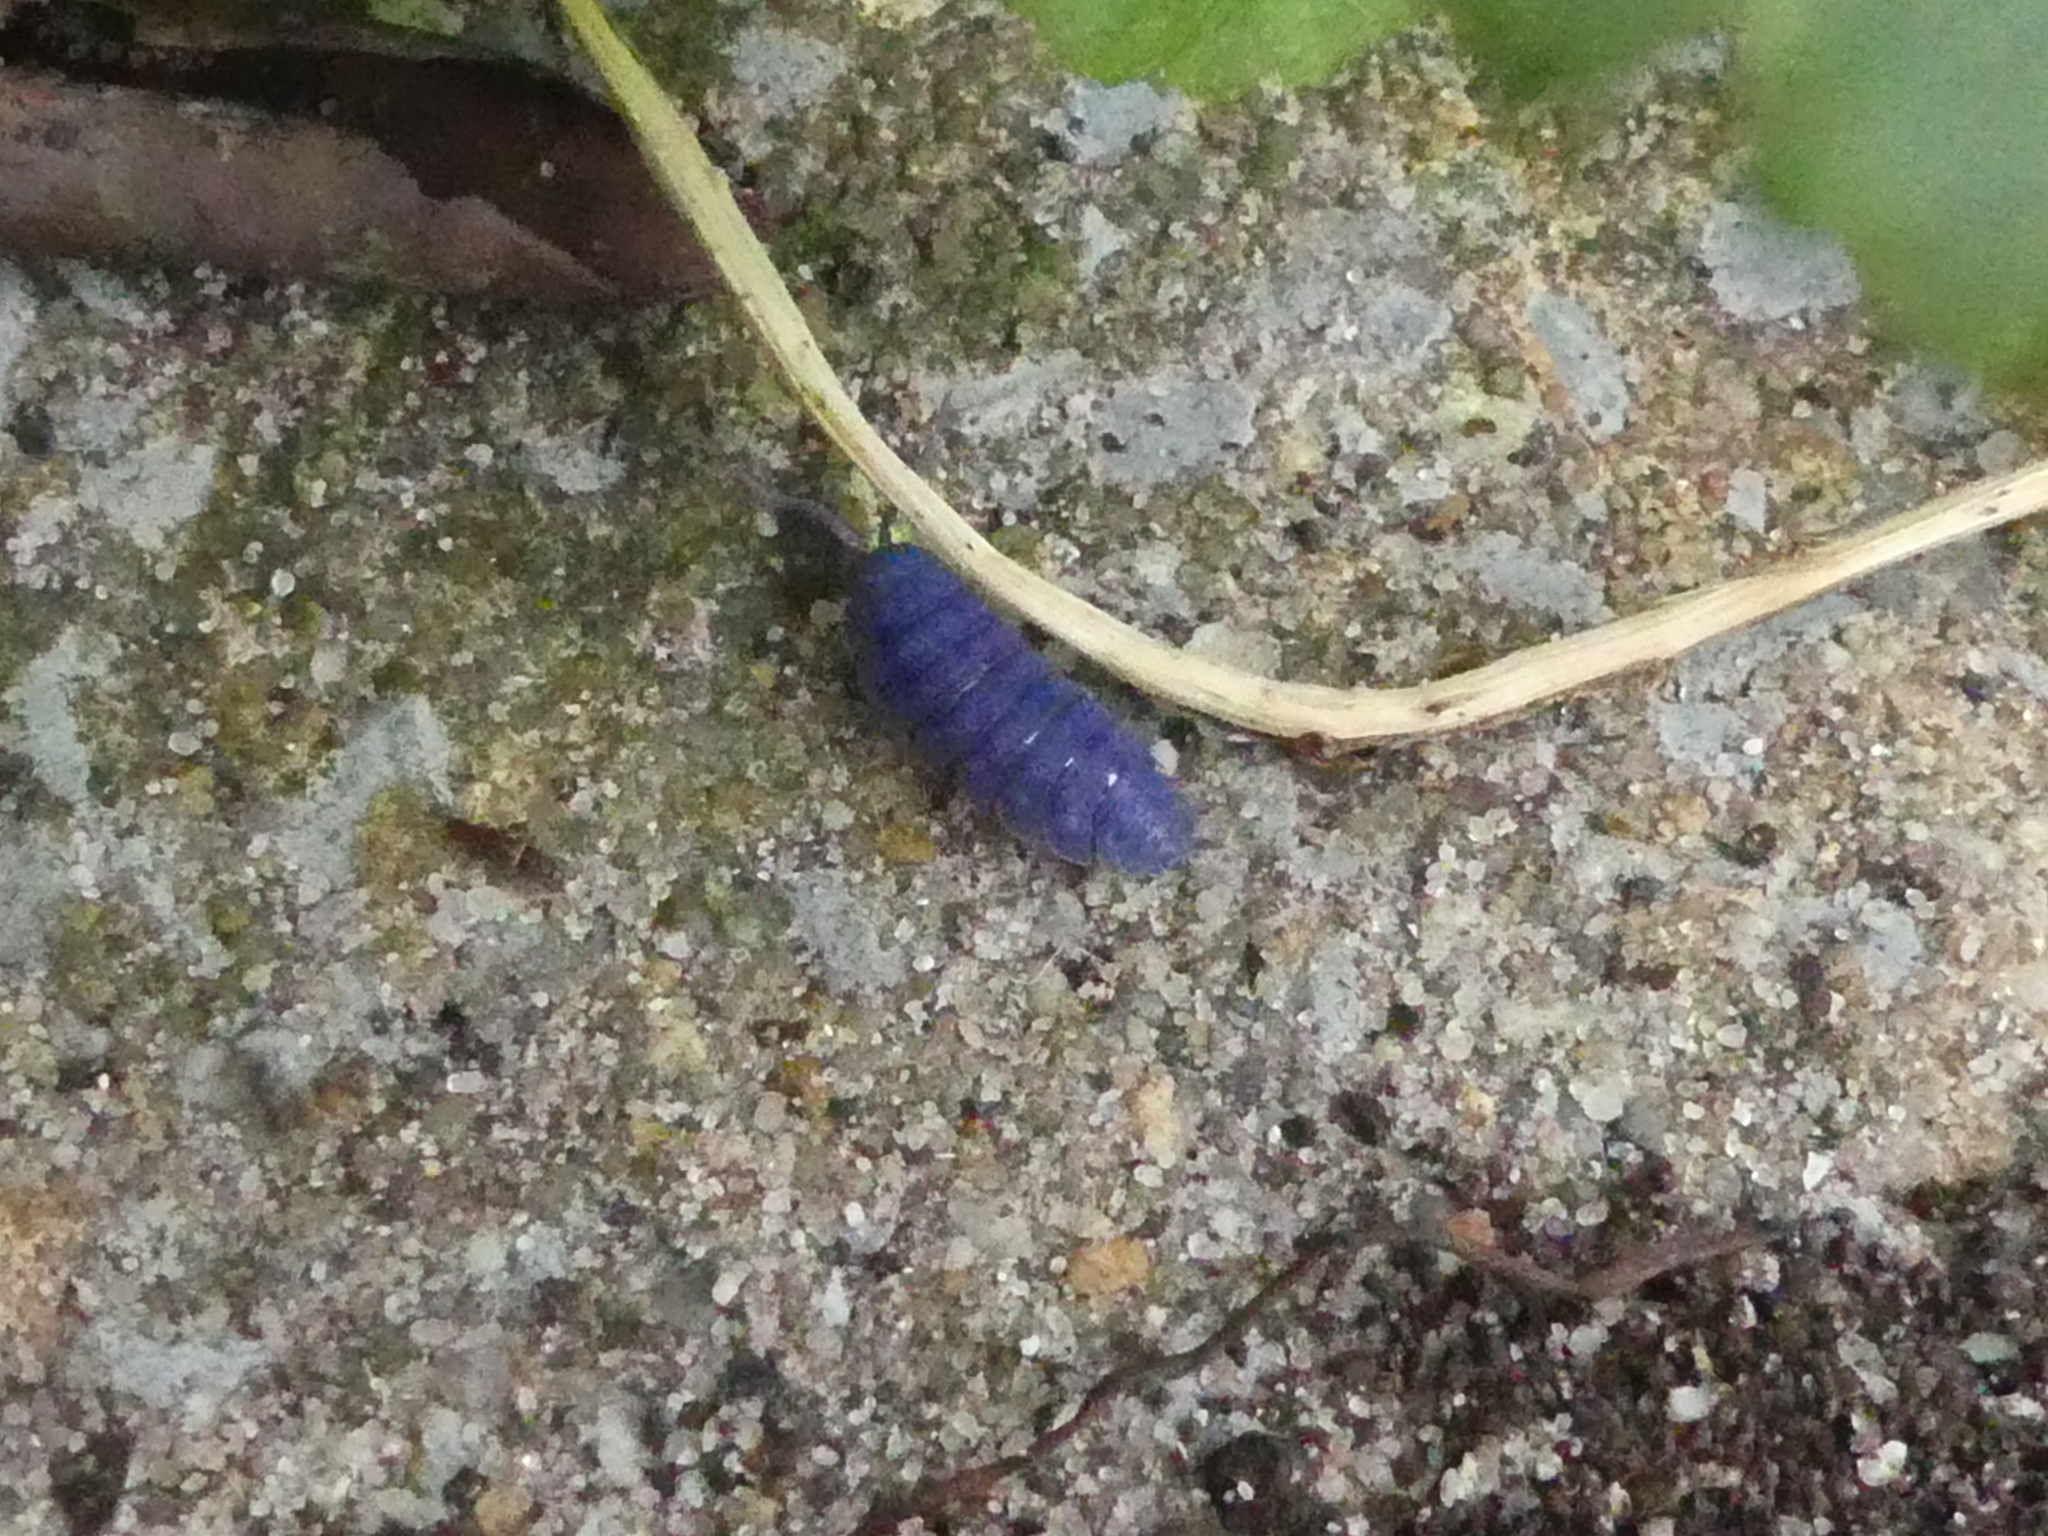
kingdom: Viruses
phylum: Nucleocytoviricota
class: Megaviricetes
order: Pimascovirales
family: Iridoviridae
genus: Iridovirus
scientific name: Iridovirus Invertebrate iridescent virus 31
